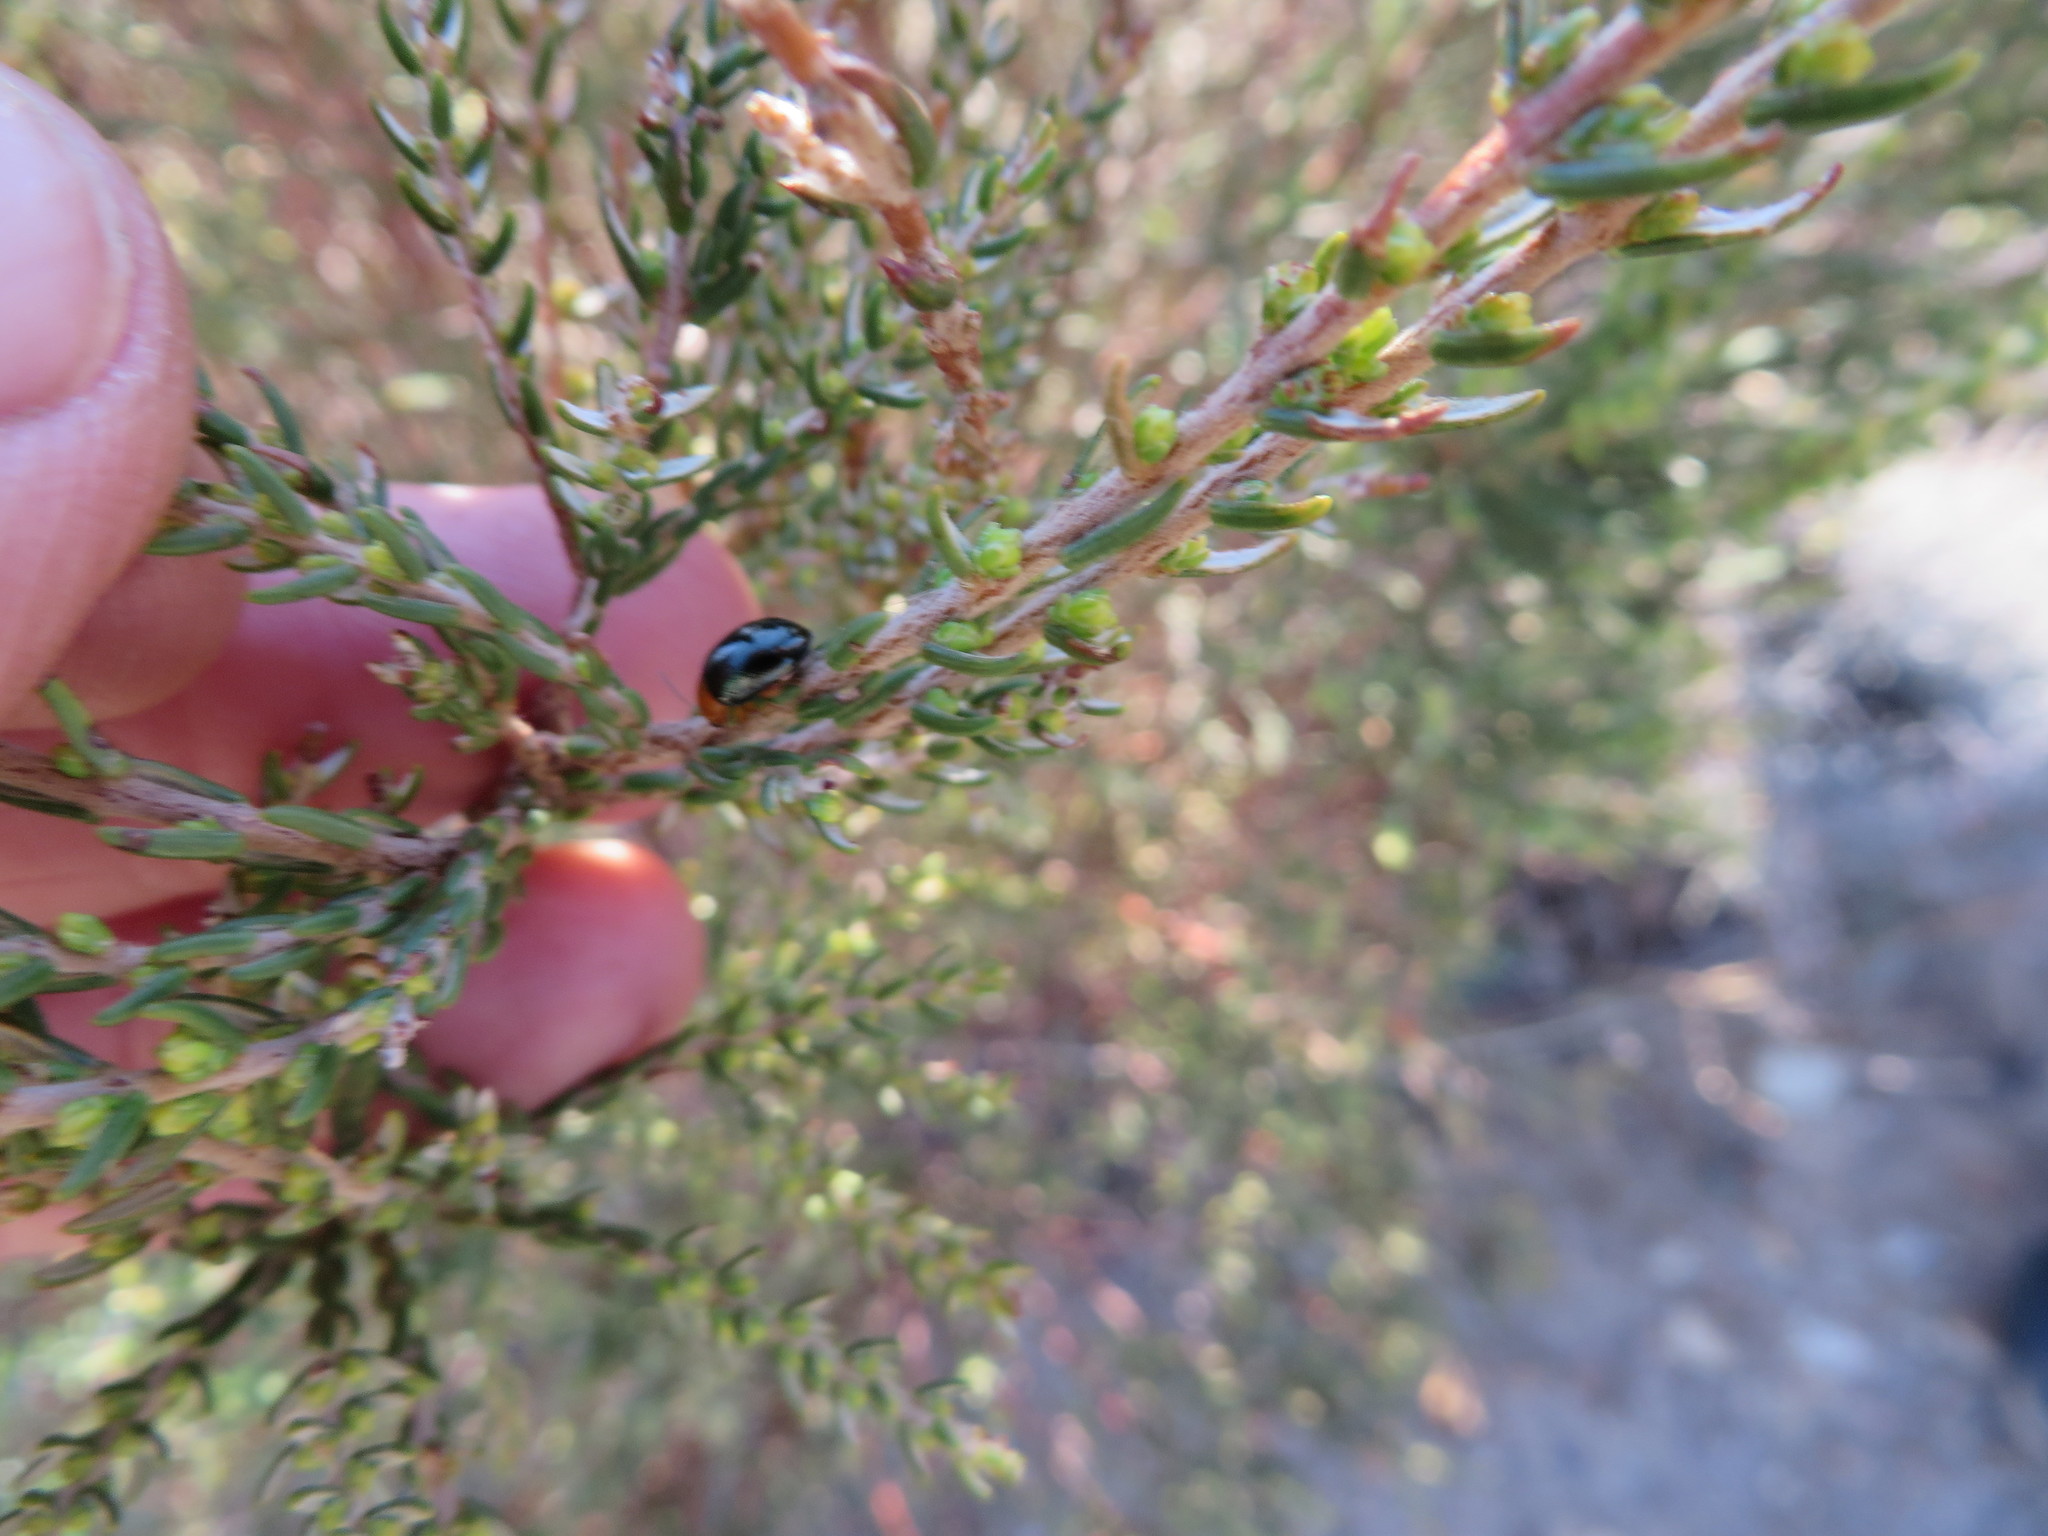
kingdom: Plantae
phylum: Tracheophyta
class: Magnoliopsida
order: Malvales
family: Thymelaeaceae
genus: Passerina
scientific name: Passerina corymbosa
